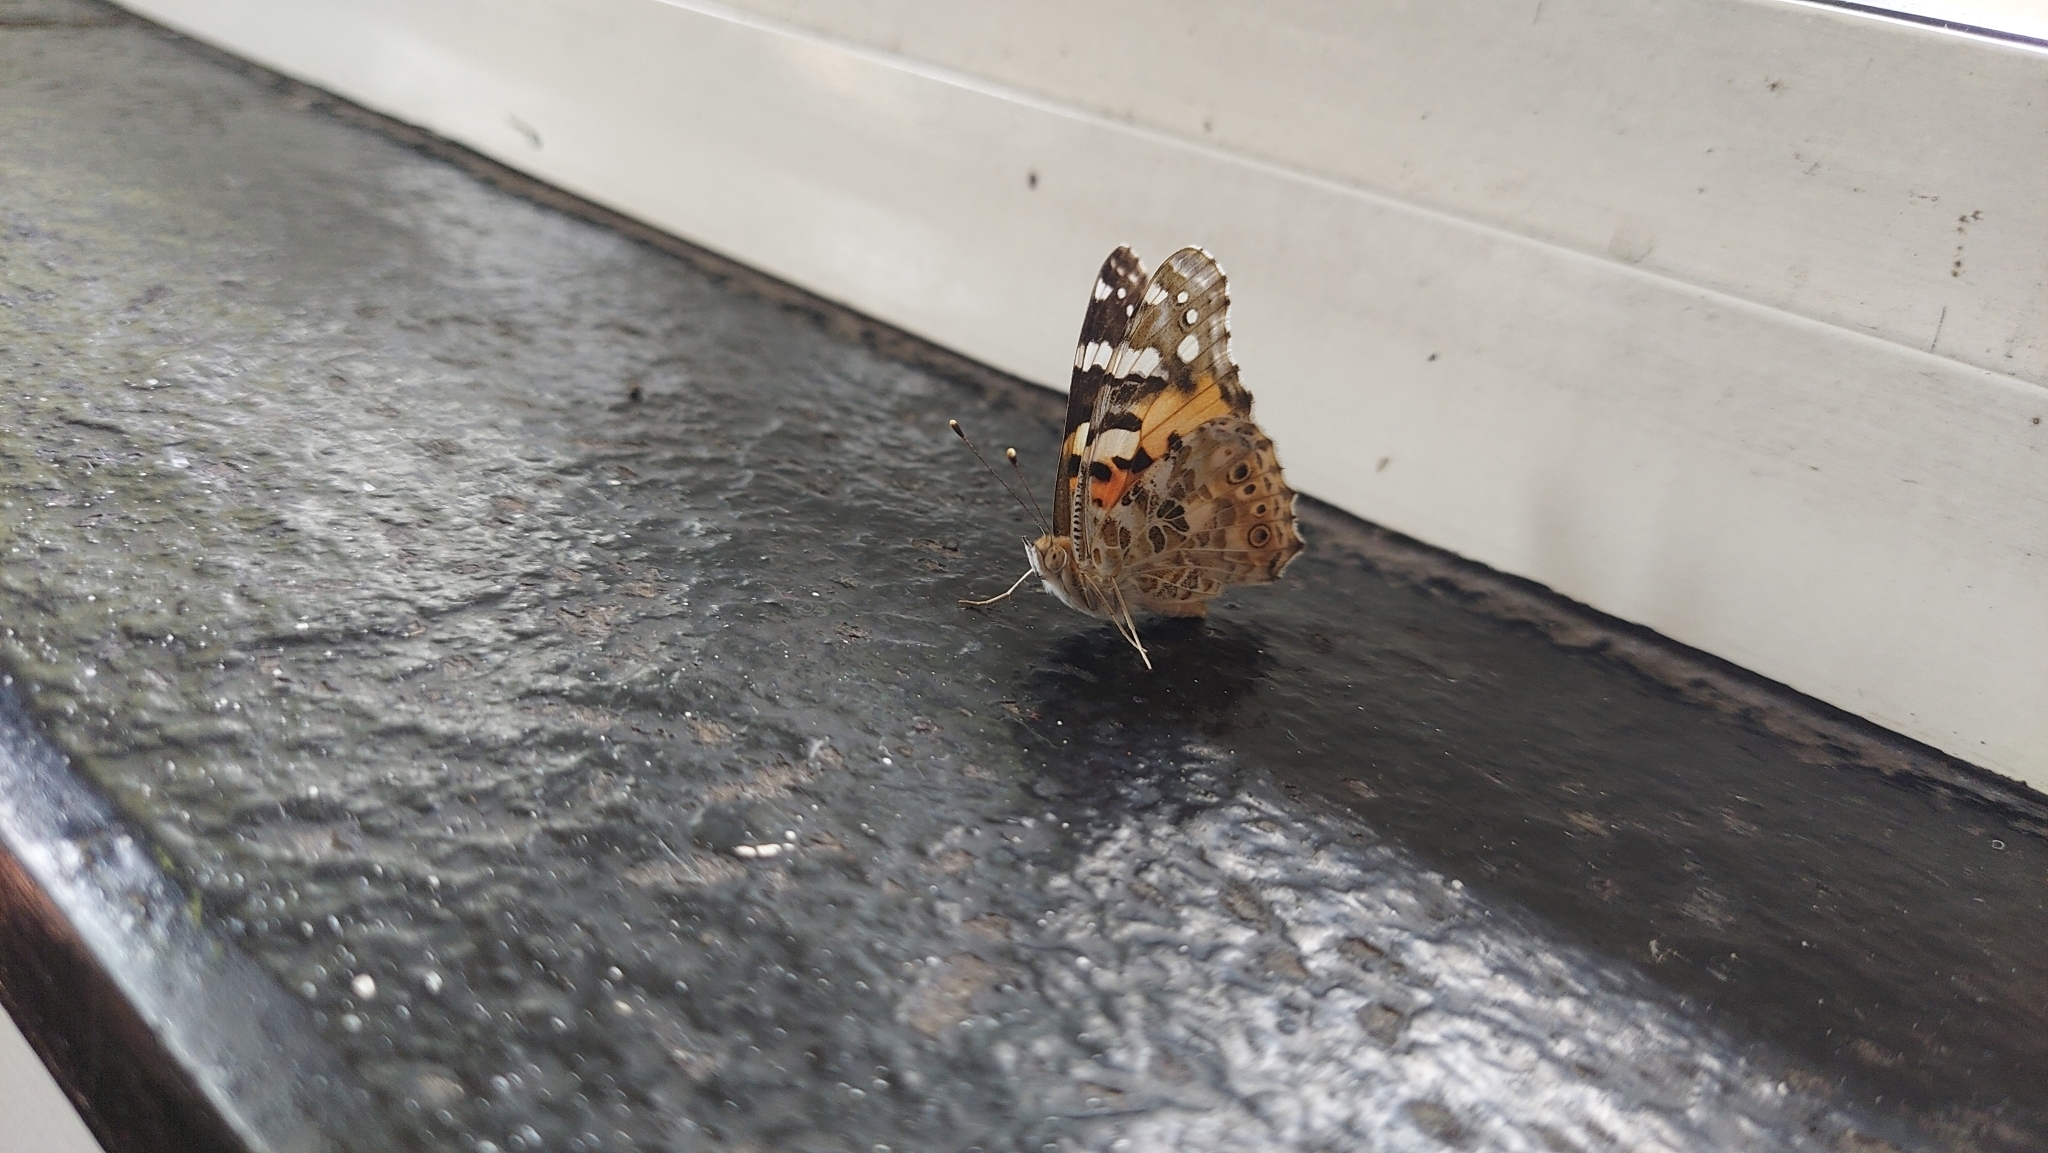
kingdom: Animalia
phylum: Arthropoda
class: Insecta
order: Lepidoptera
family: Nymphalidae
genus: Vanessa
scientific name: Vanessa cardui
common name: Painted lady
